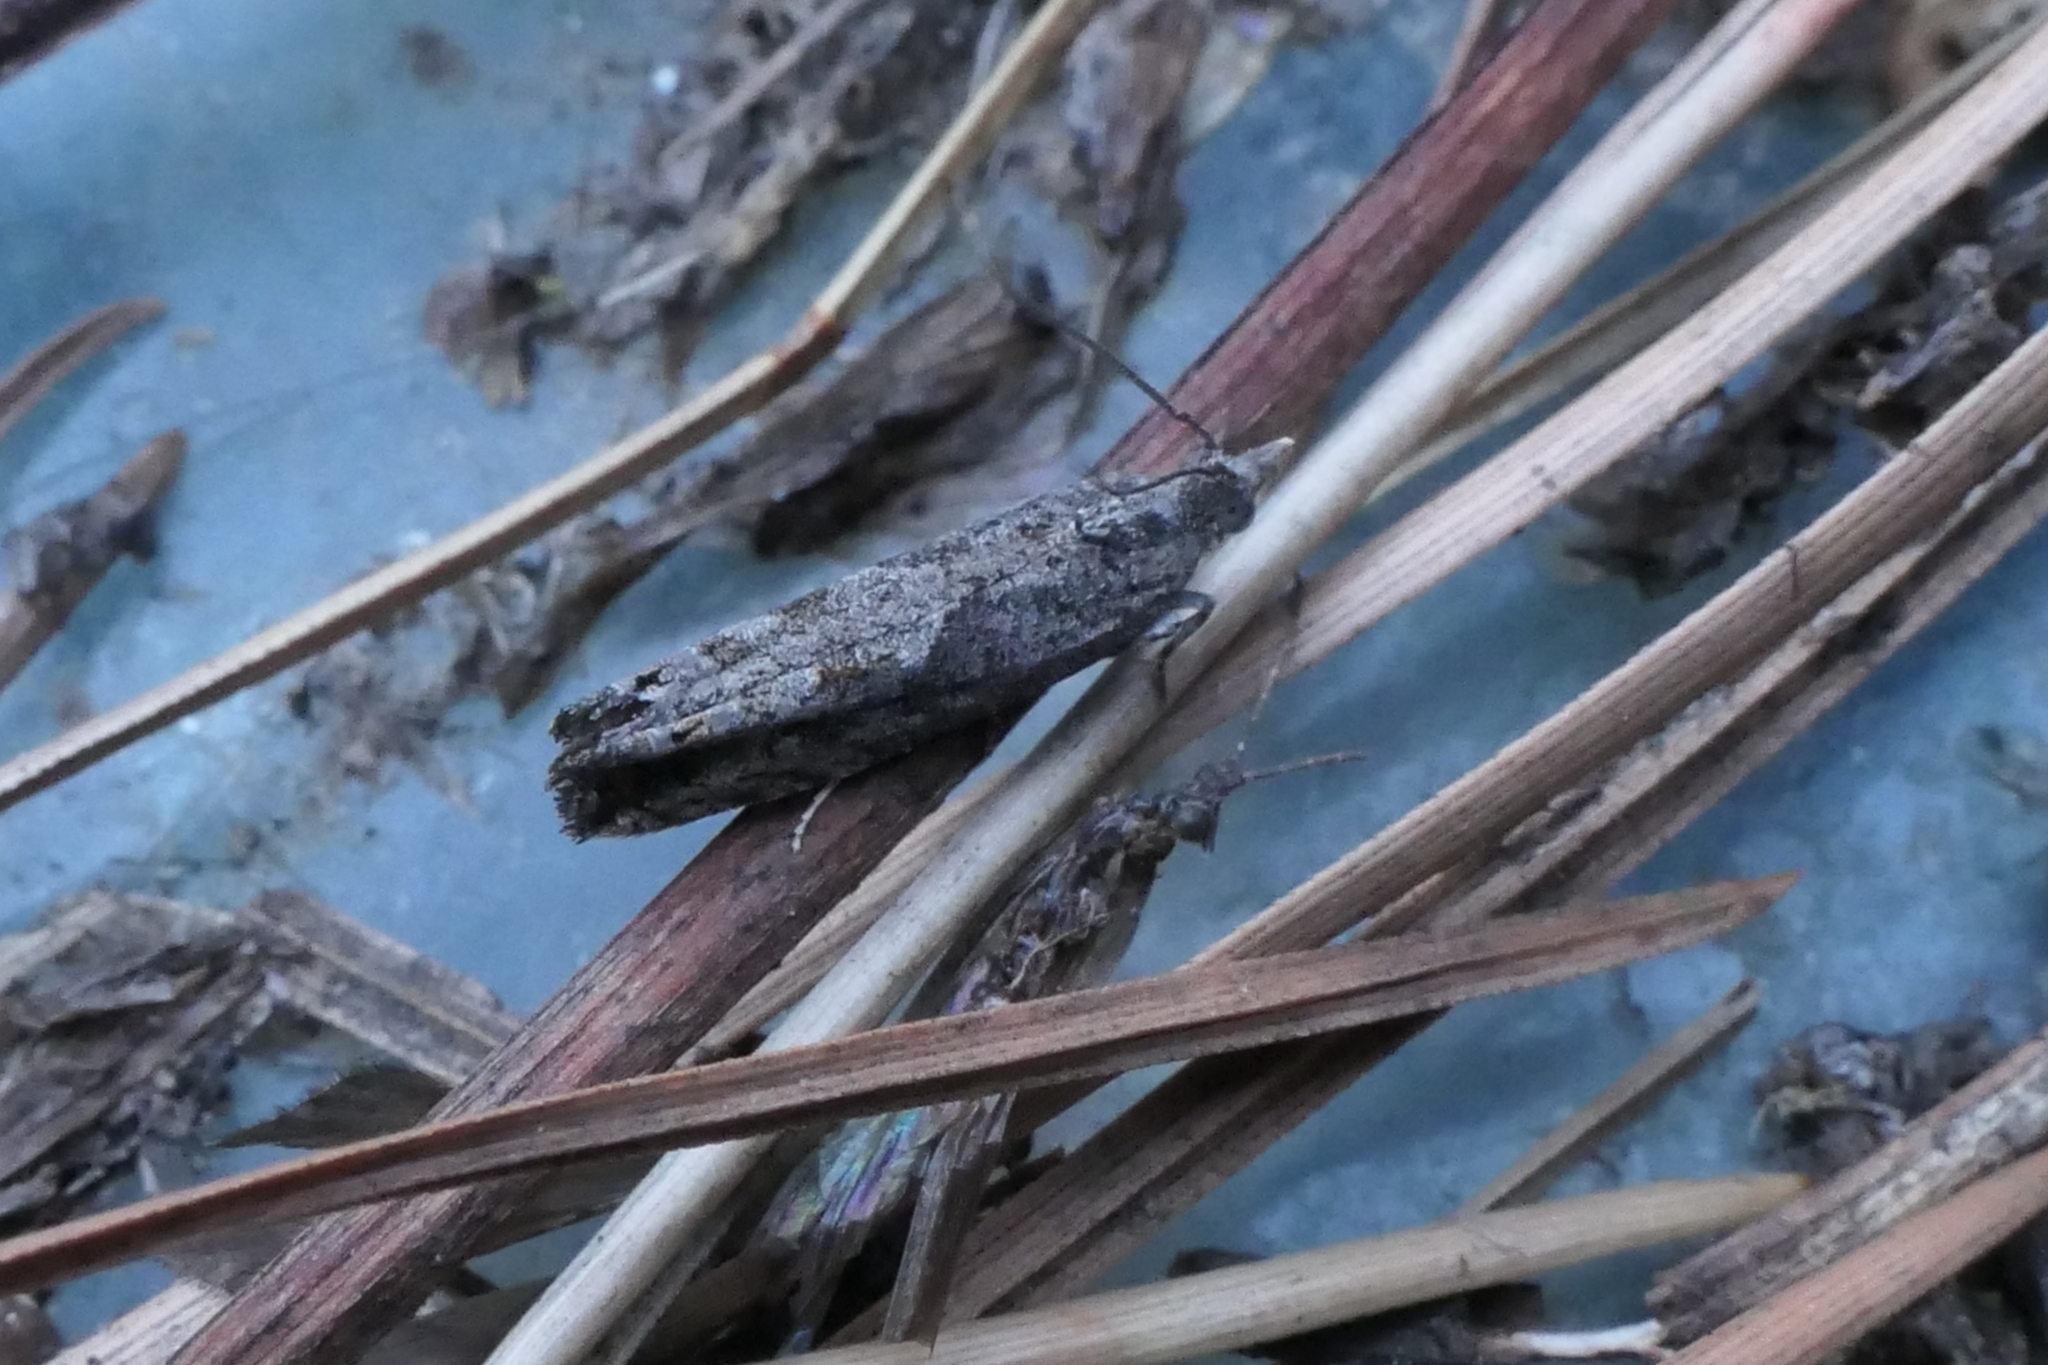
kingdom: Animalia
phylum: Arthropoda
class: Insecta
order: Lepidoptera
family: Tortricidae
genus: Strepsicrates
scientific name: Strepsicrates macropetana
